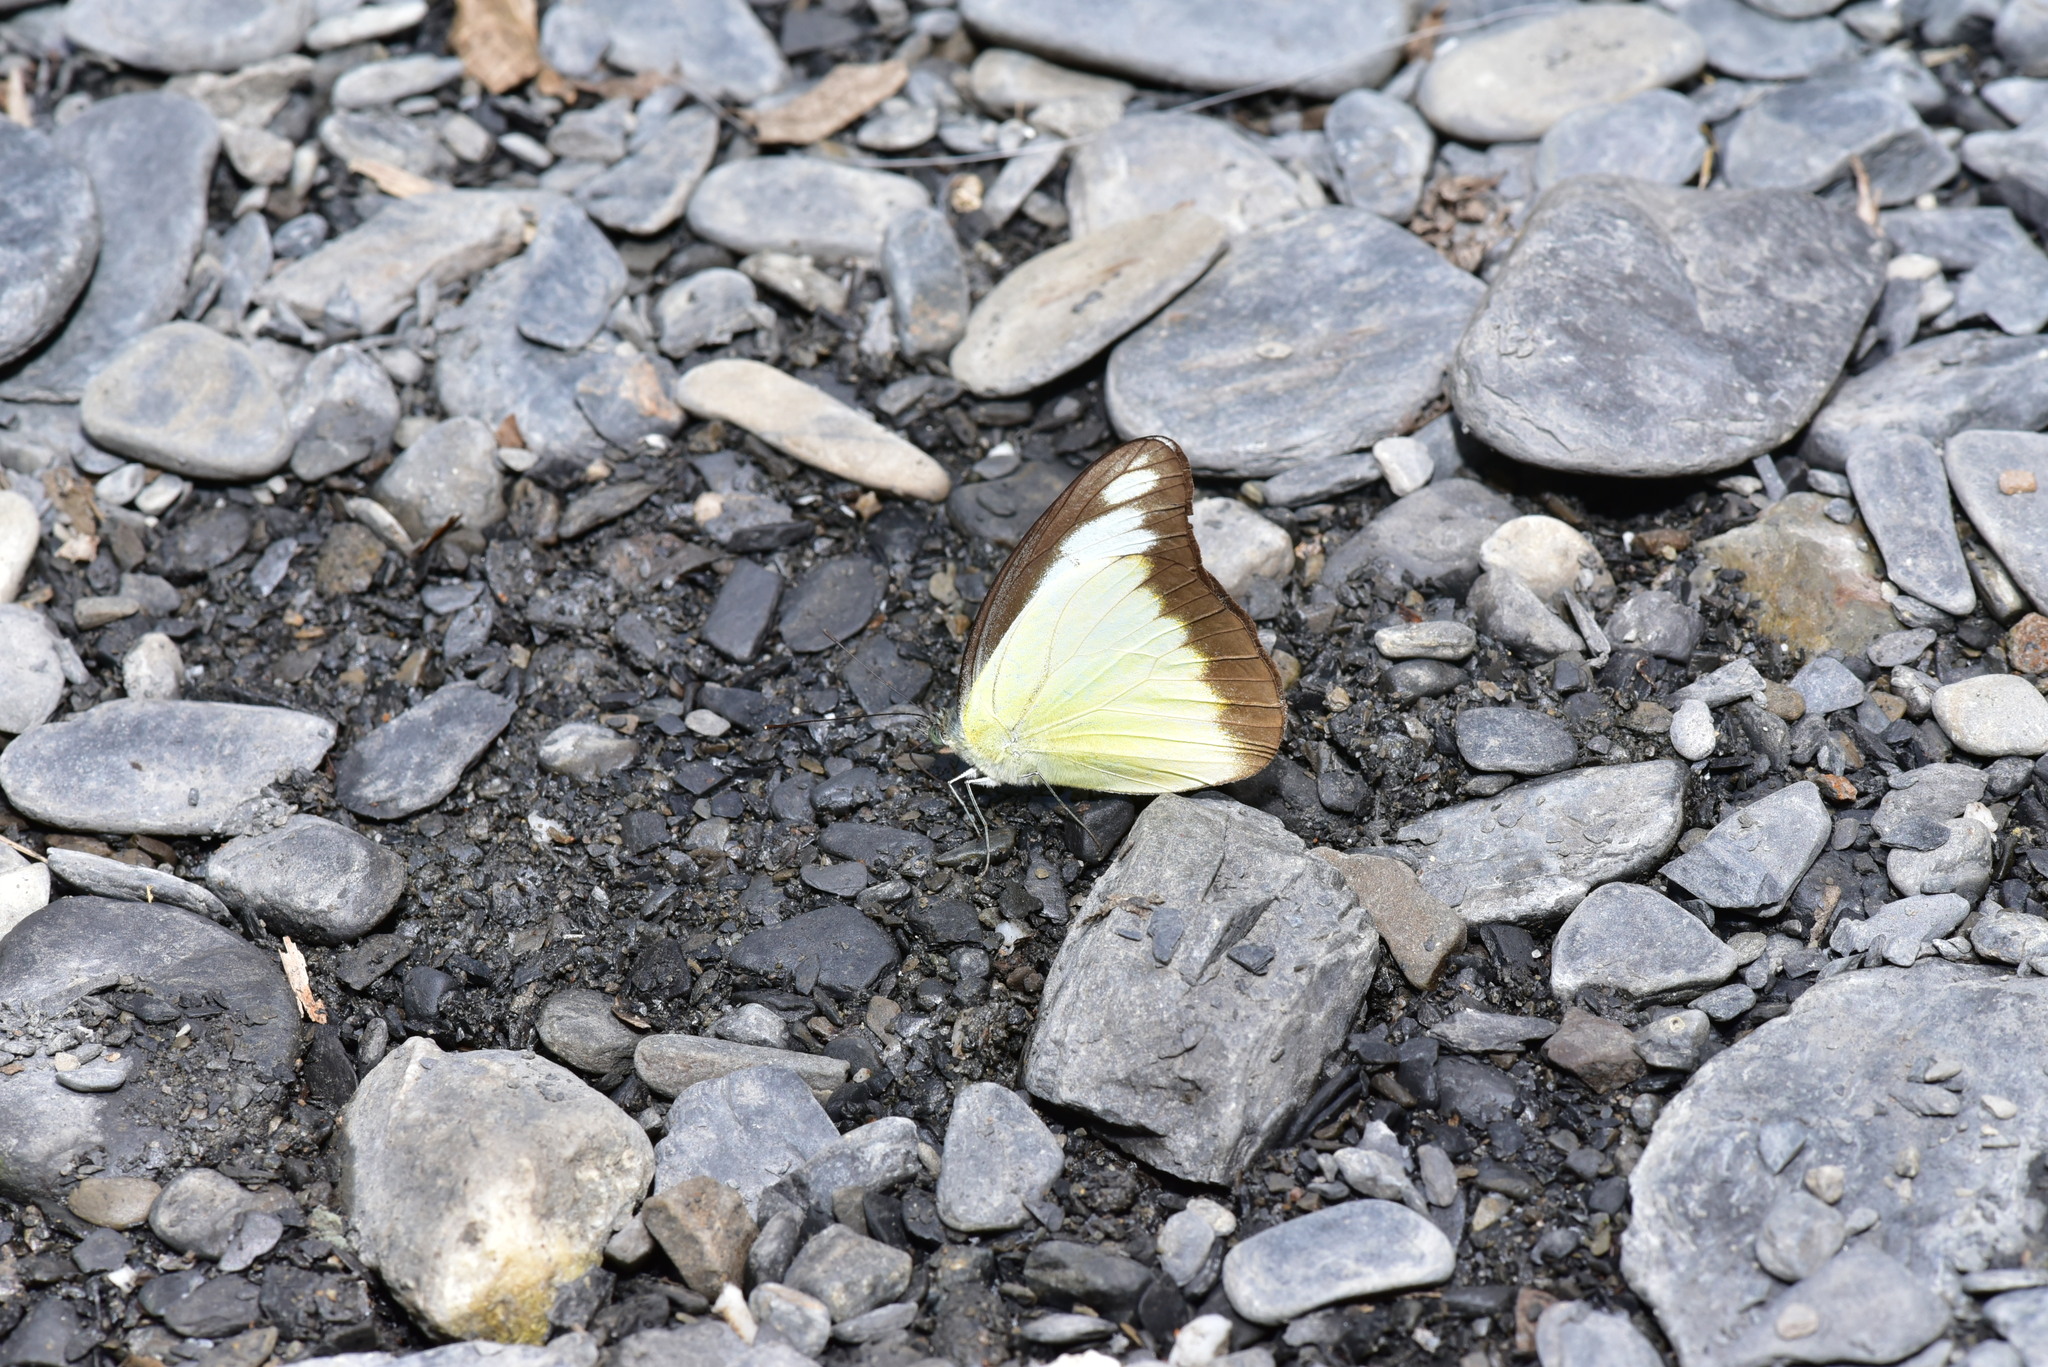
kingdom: Animalia
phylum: Arthropoda
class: Insecta
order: Lepidoptera
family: Pieridae
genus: Appias
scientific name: Appias lyncida
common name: Chocolate albatross
